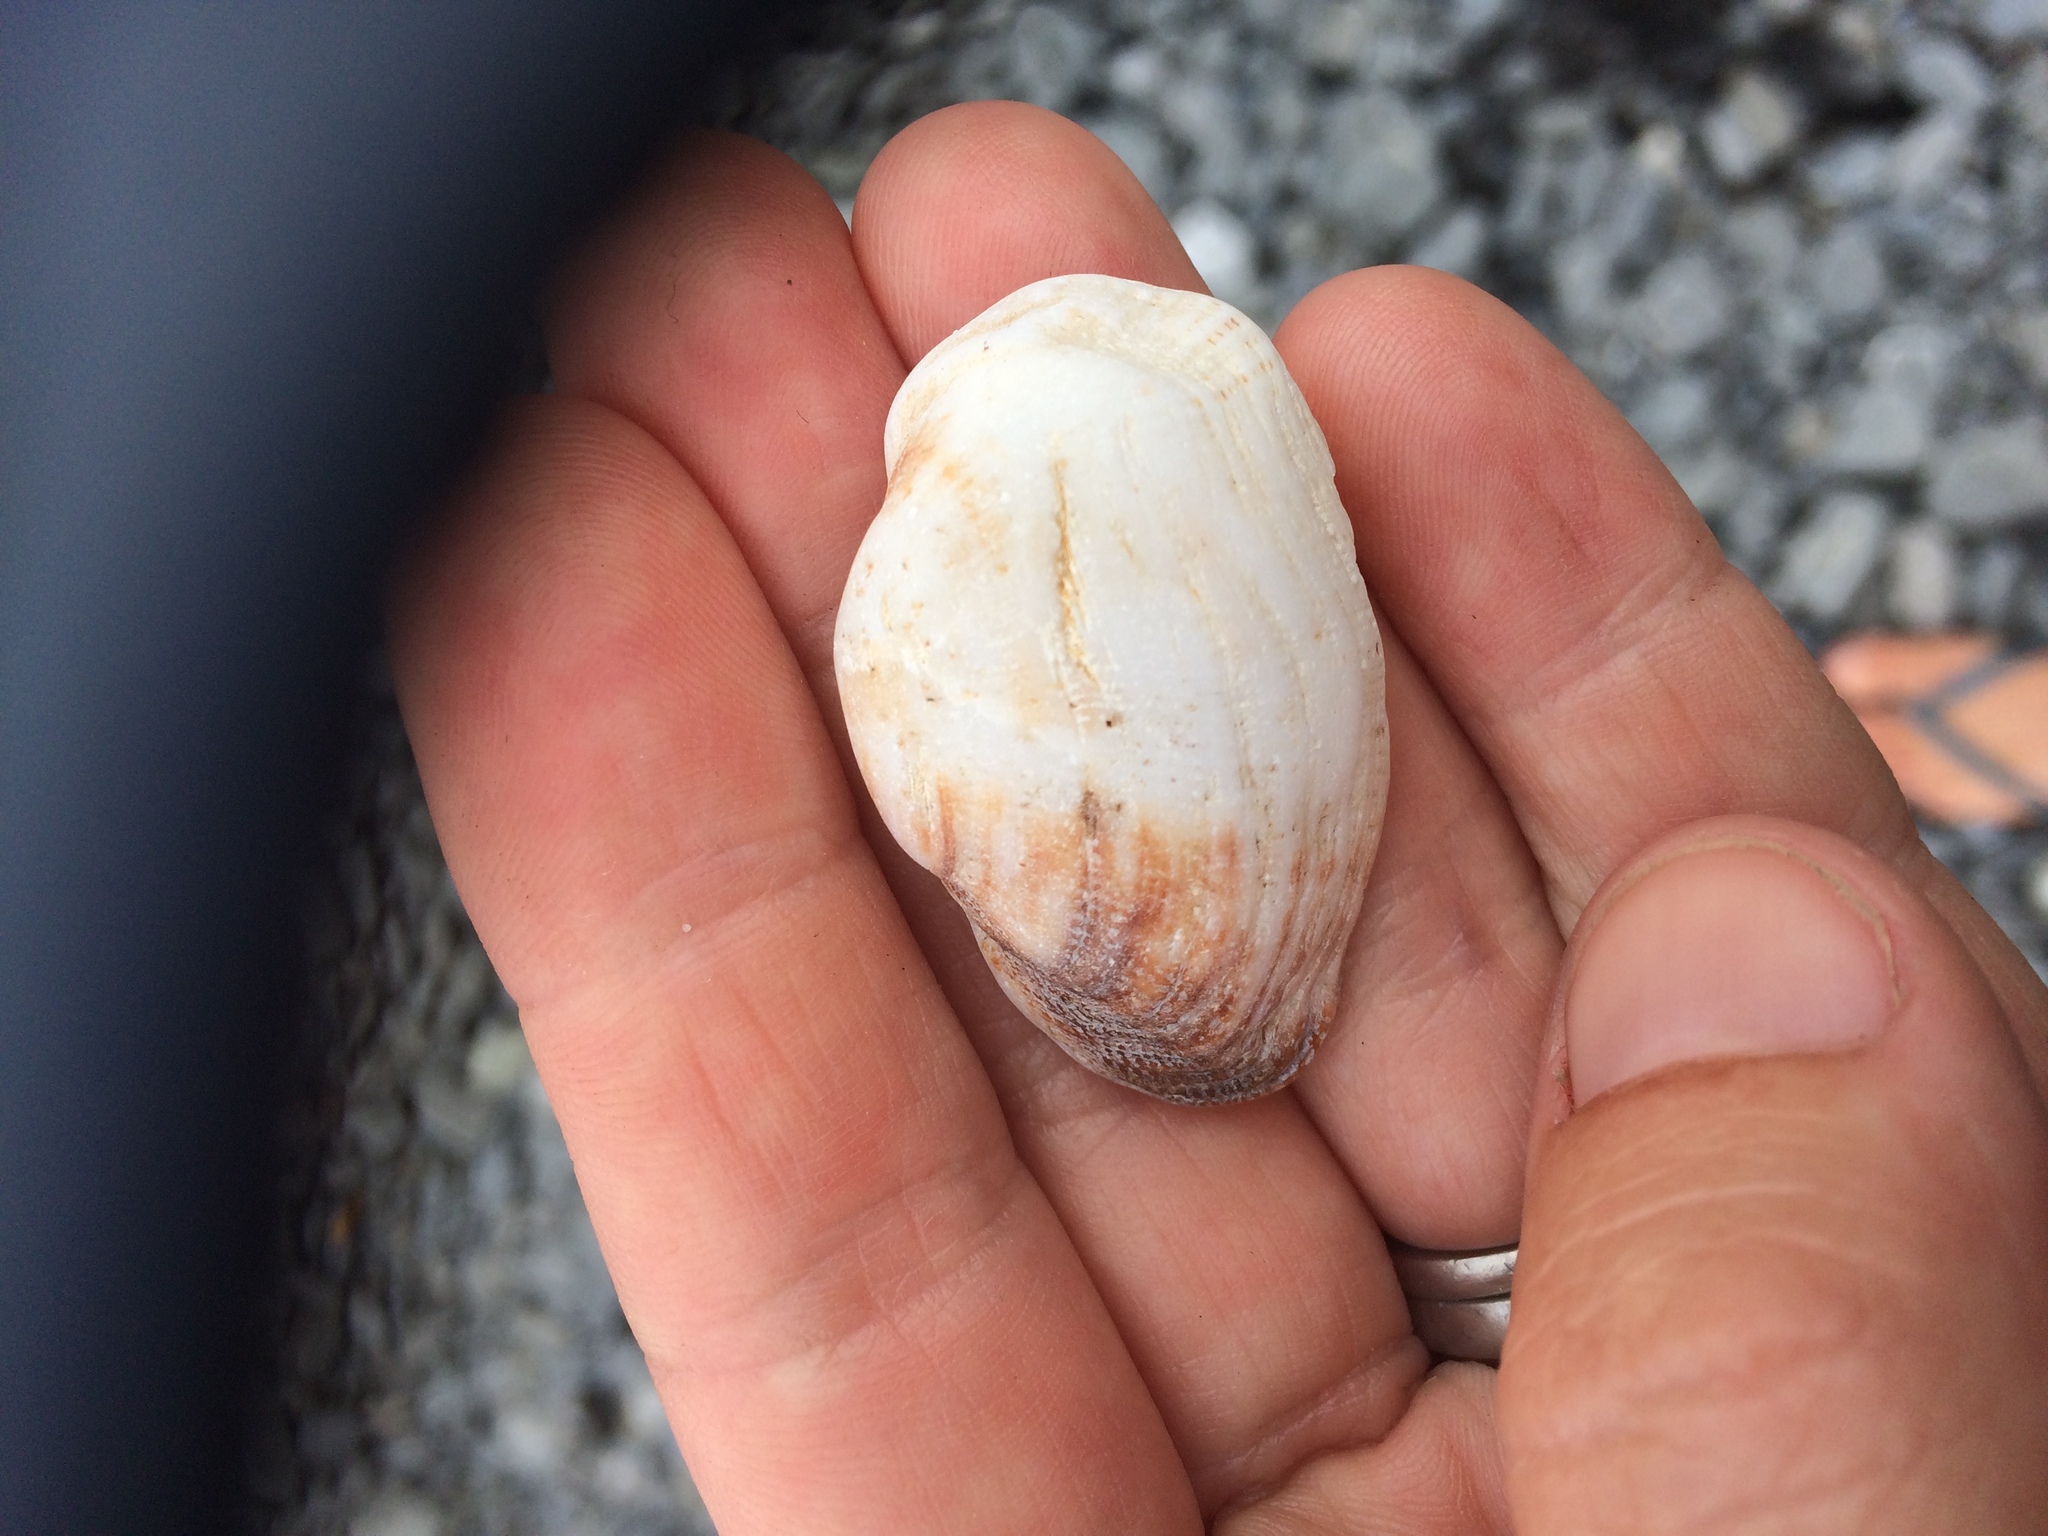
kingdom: Animalia
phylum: Mollusca
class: Bivalvia
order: Arcida
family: Arcidae
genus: Barbatia
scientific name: Barbatia novaezealandiae
